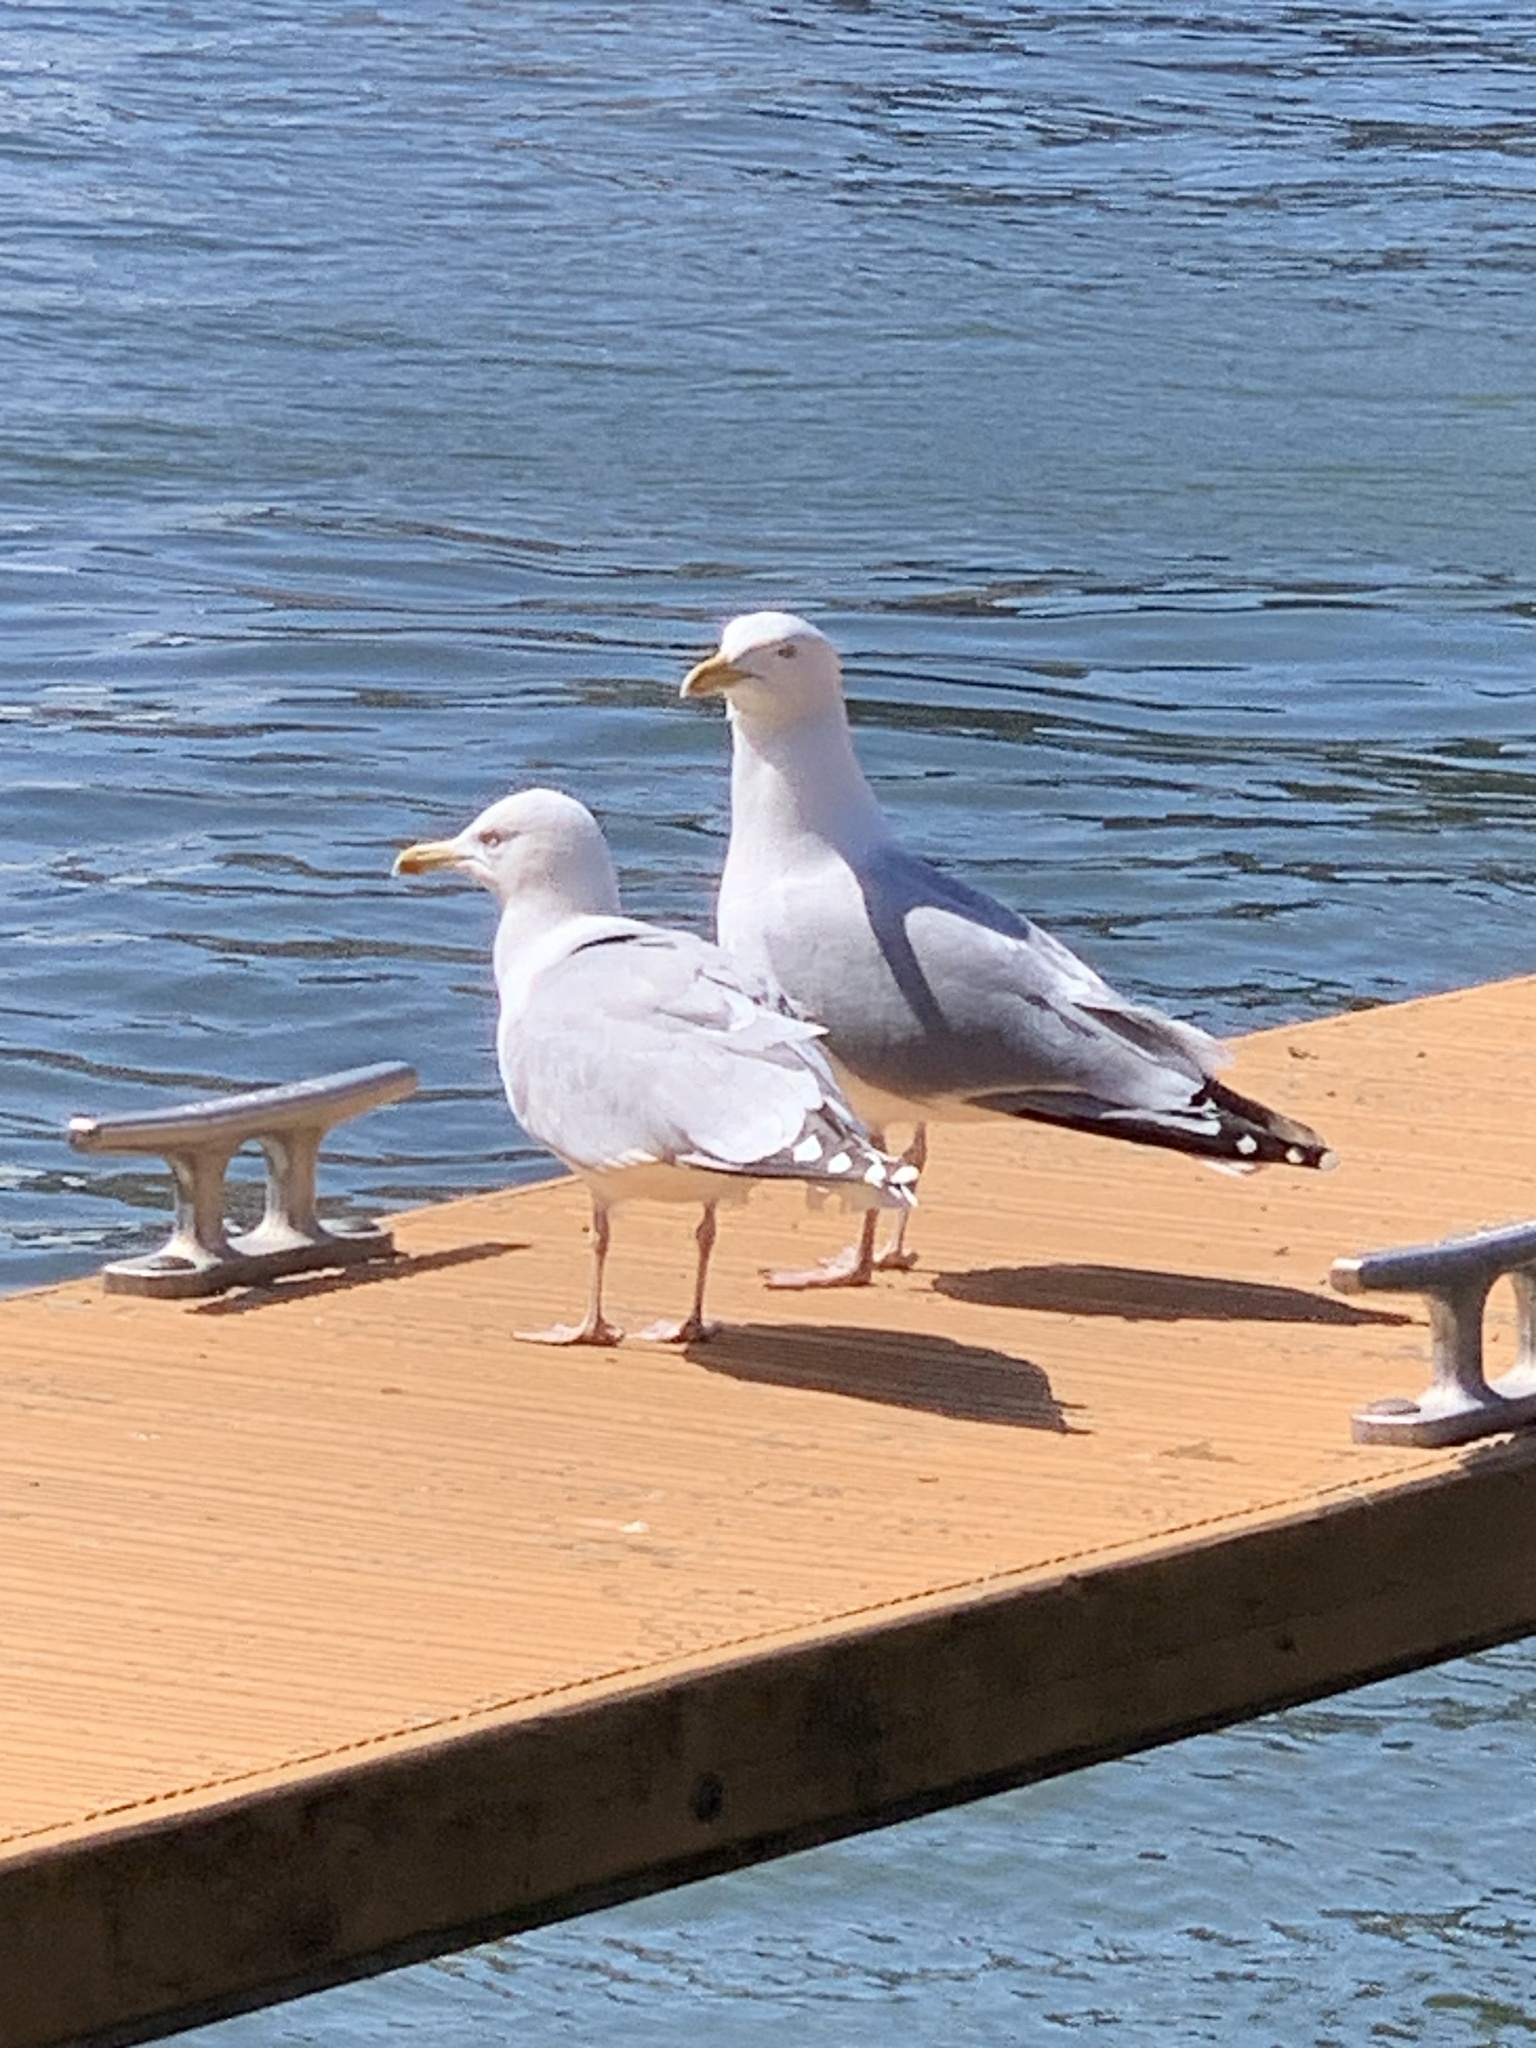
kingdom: Animalia
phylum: Chordata
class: Aves
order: Charadriiformes
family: Laridae
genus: Larus
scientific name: Larus argentatus
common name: Herring gull
